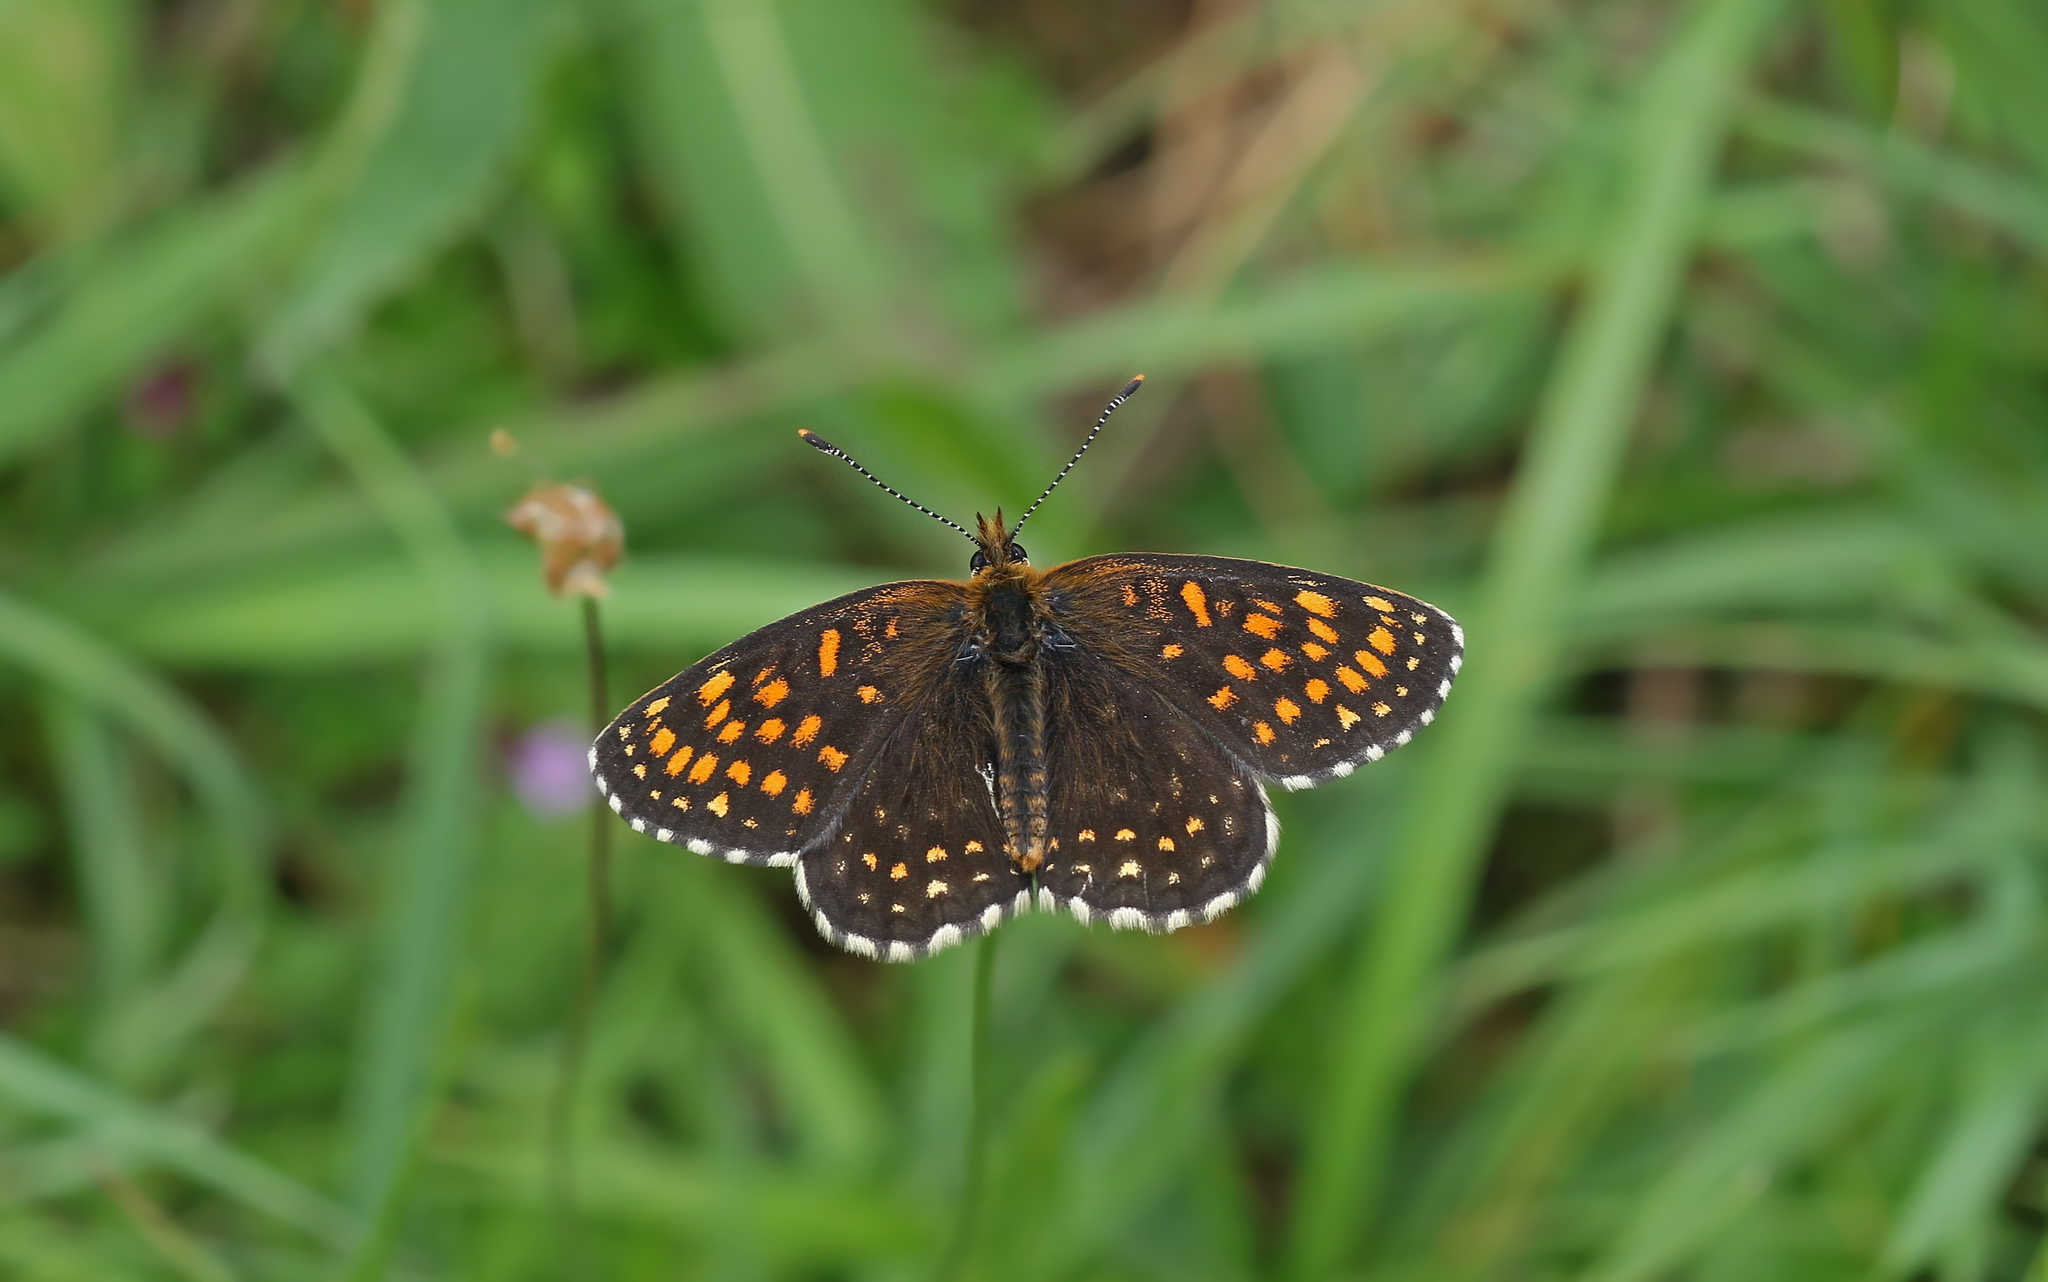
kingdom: Animalia
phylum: Arthropoda
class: Insecta
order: Lepidoptera
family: Nymphalidae
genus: Melitaea
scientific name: Melitaea diamina
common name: False heath fritillary
